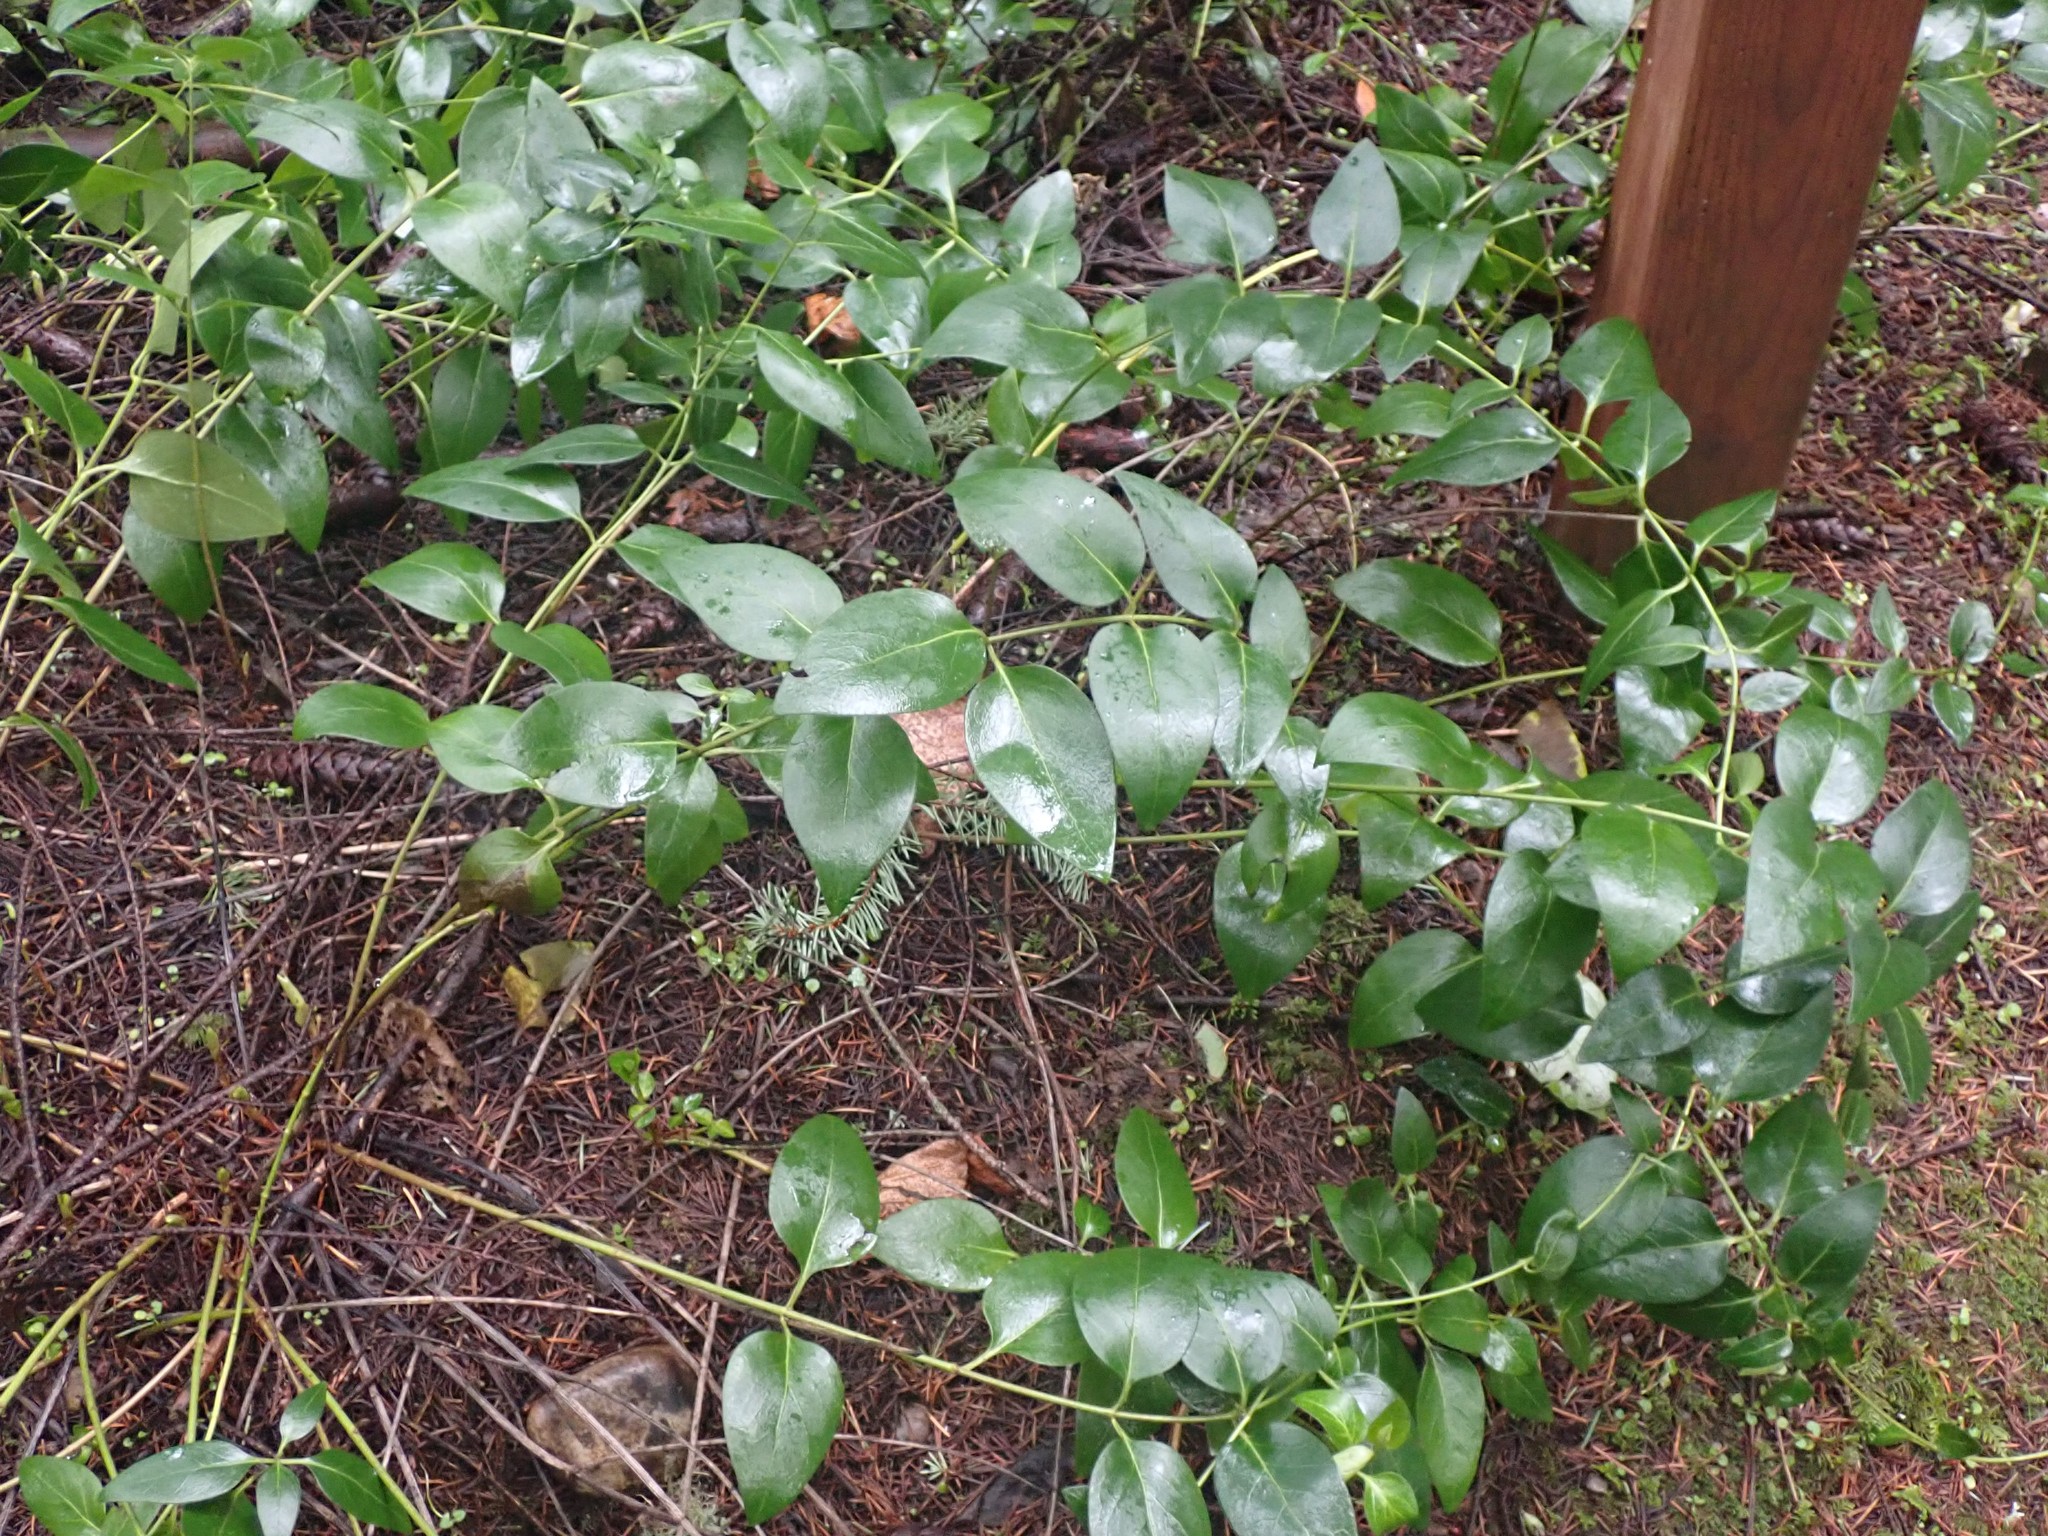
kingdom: Plantae
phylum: Tracheophyta
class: Magnoliopsida
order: Gentianales
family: Apocynaceae
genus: Vinca
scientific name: Vinca major
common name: Greater periwinkle
